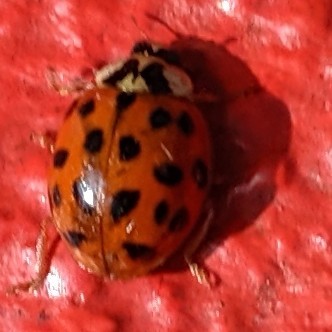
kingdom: Animalia
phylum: Arthropoda
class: Insecta
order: Coleoptera
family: Coccinellidae
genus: Harmonia
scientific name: Harmonia axyridis
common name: Harlequin ladybird
